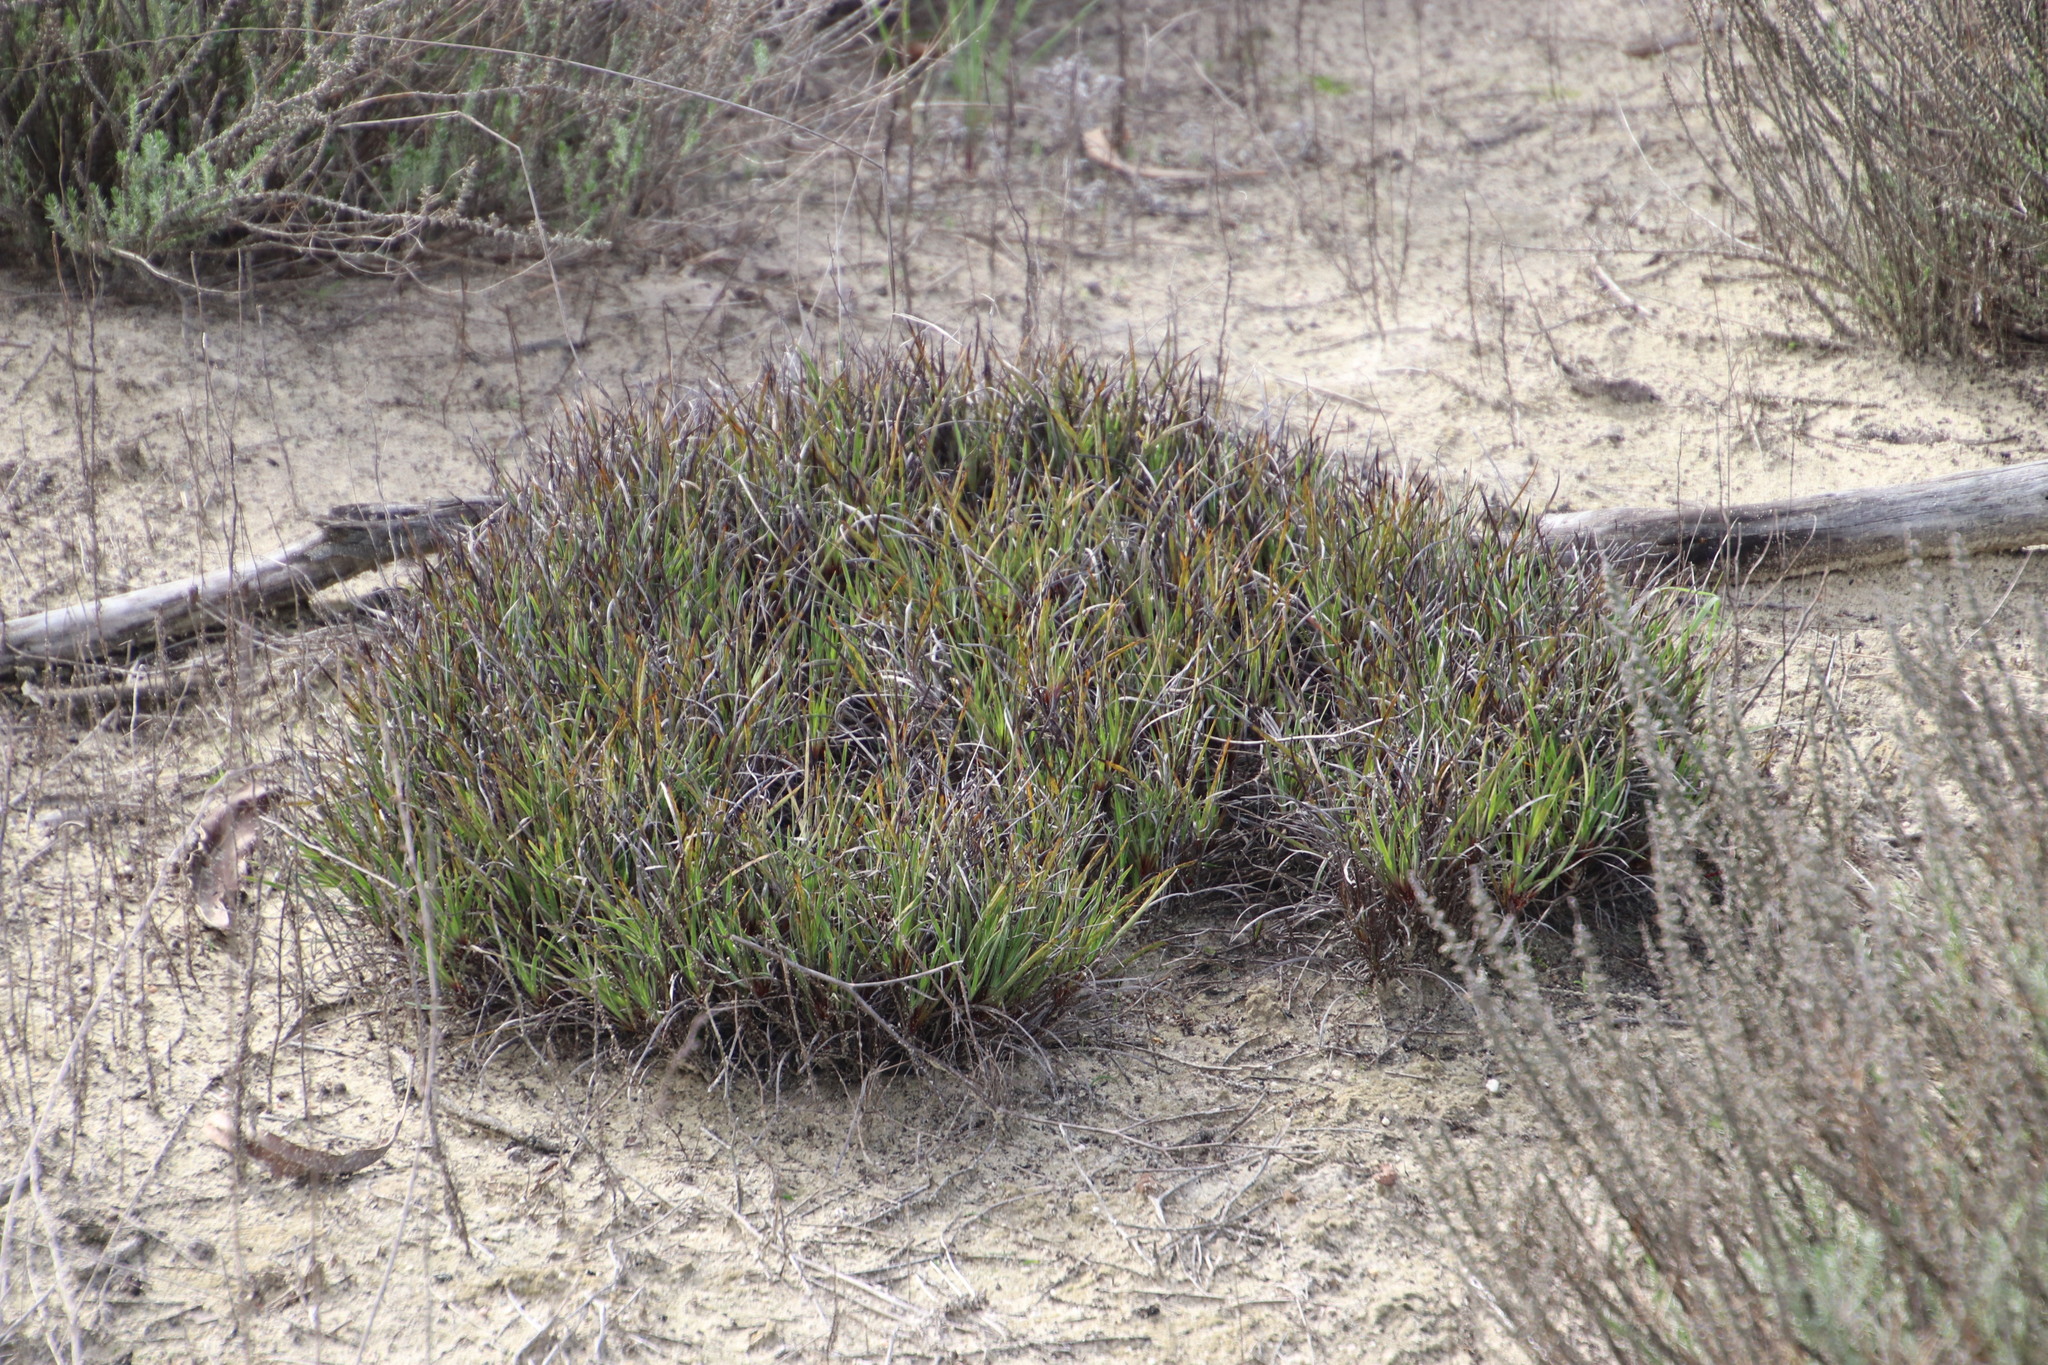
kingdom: Plantae
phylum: Tracheophyta
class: Liliopsida
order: Asparagales
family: Iridaceae
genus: Aristea
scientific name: Aristea dichotoma
